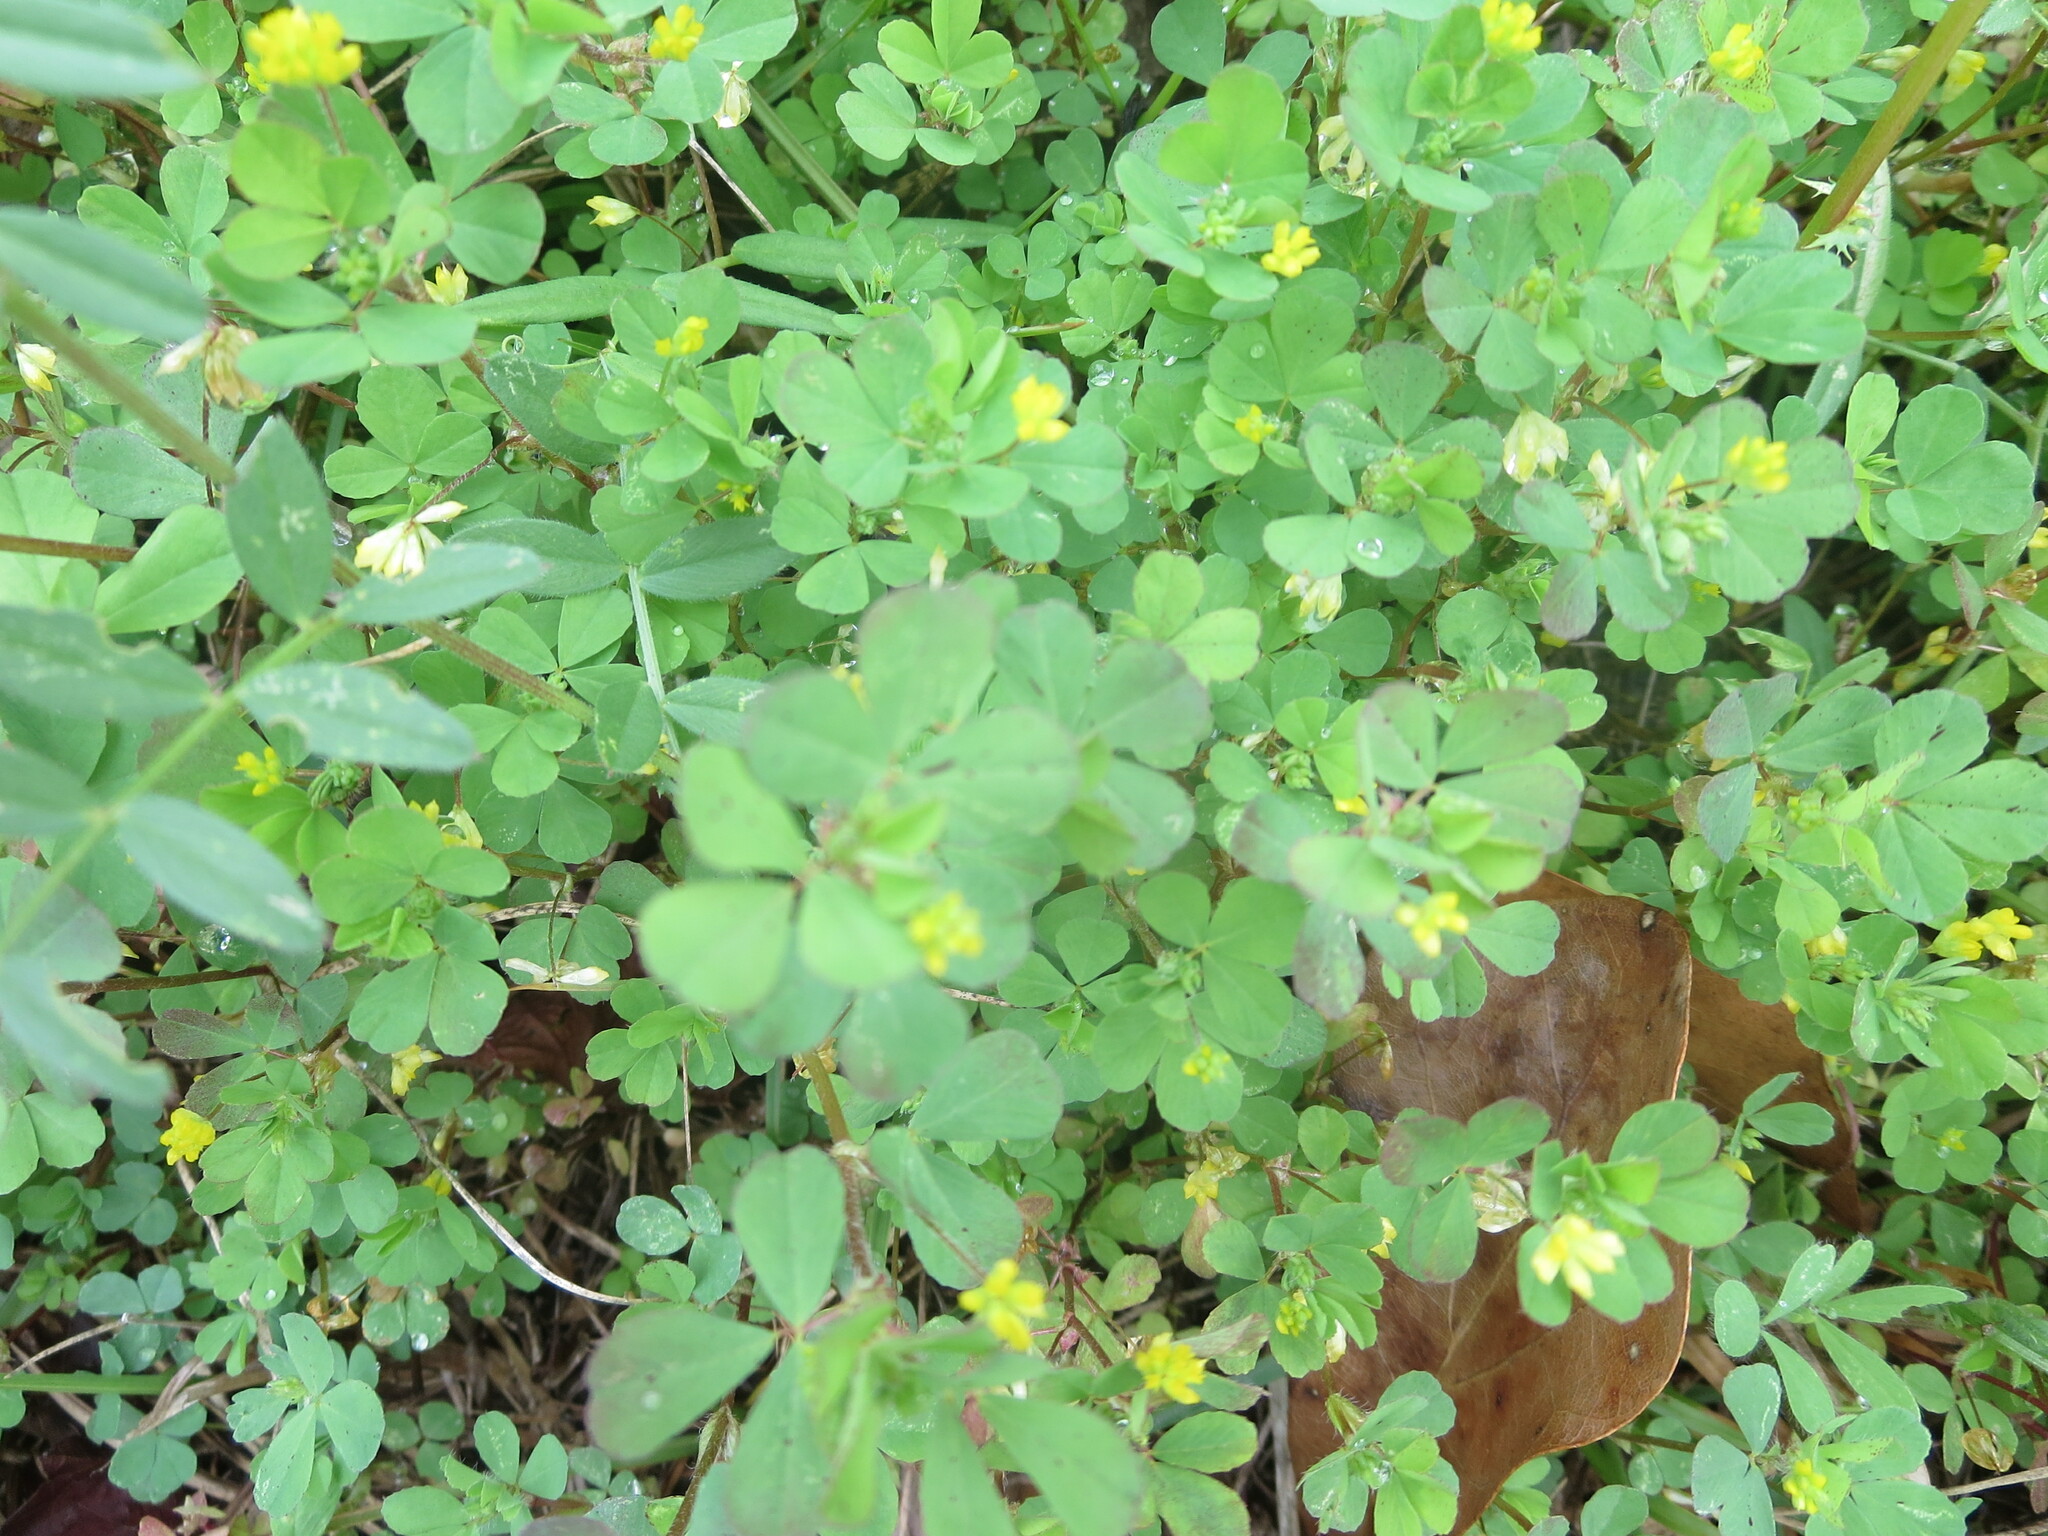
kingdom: Plantae
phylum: Tracheophyta
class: Magnoliopsida
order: Fabales
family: Fabaceae
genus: Trifolium
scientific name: Trifolium dubium
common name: Suckling clover
